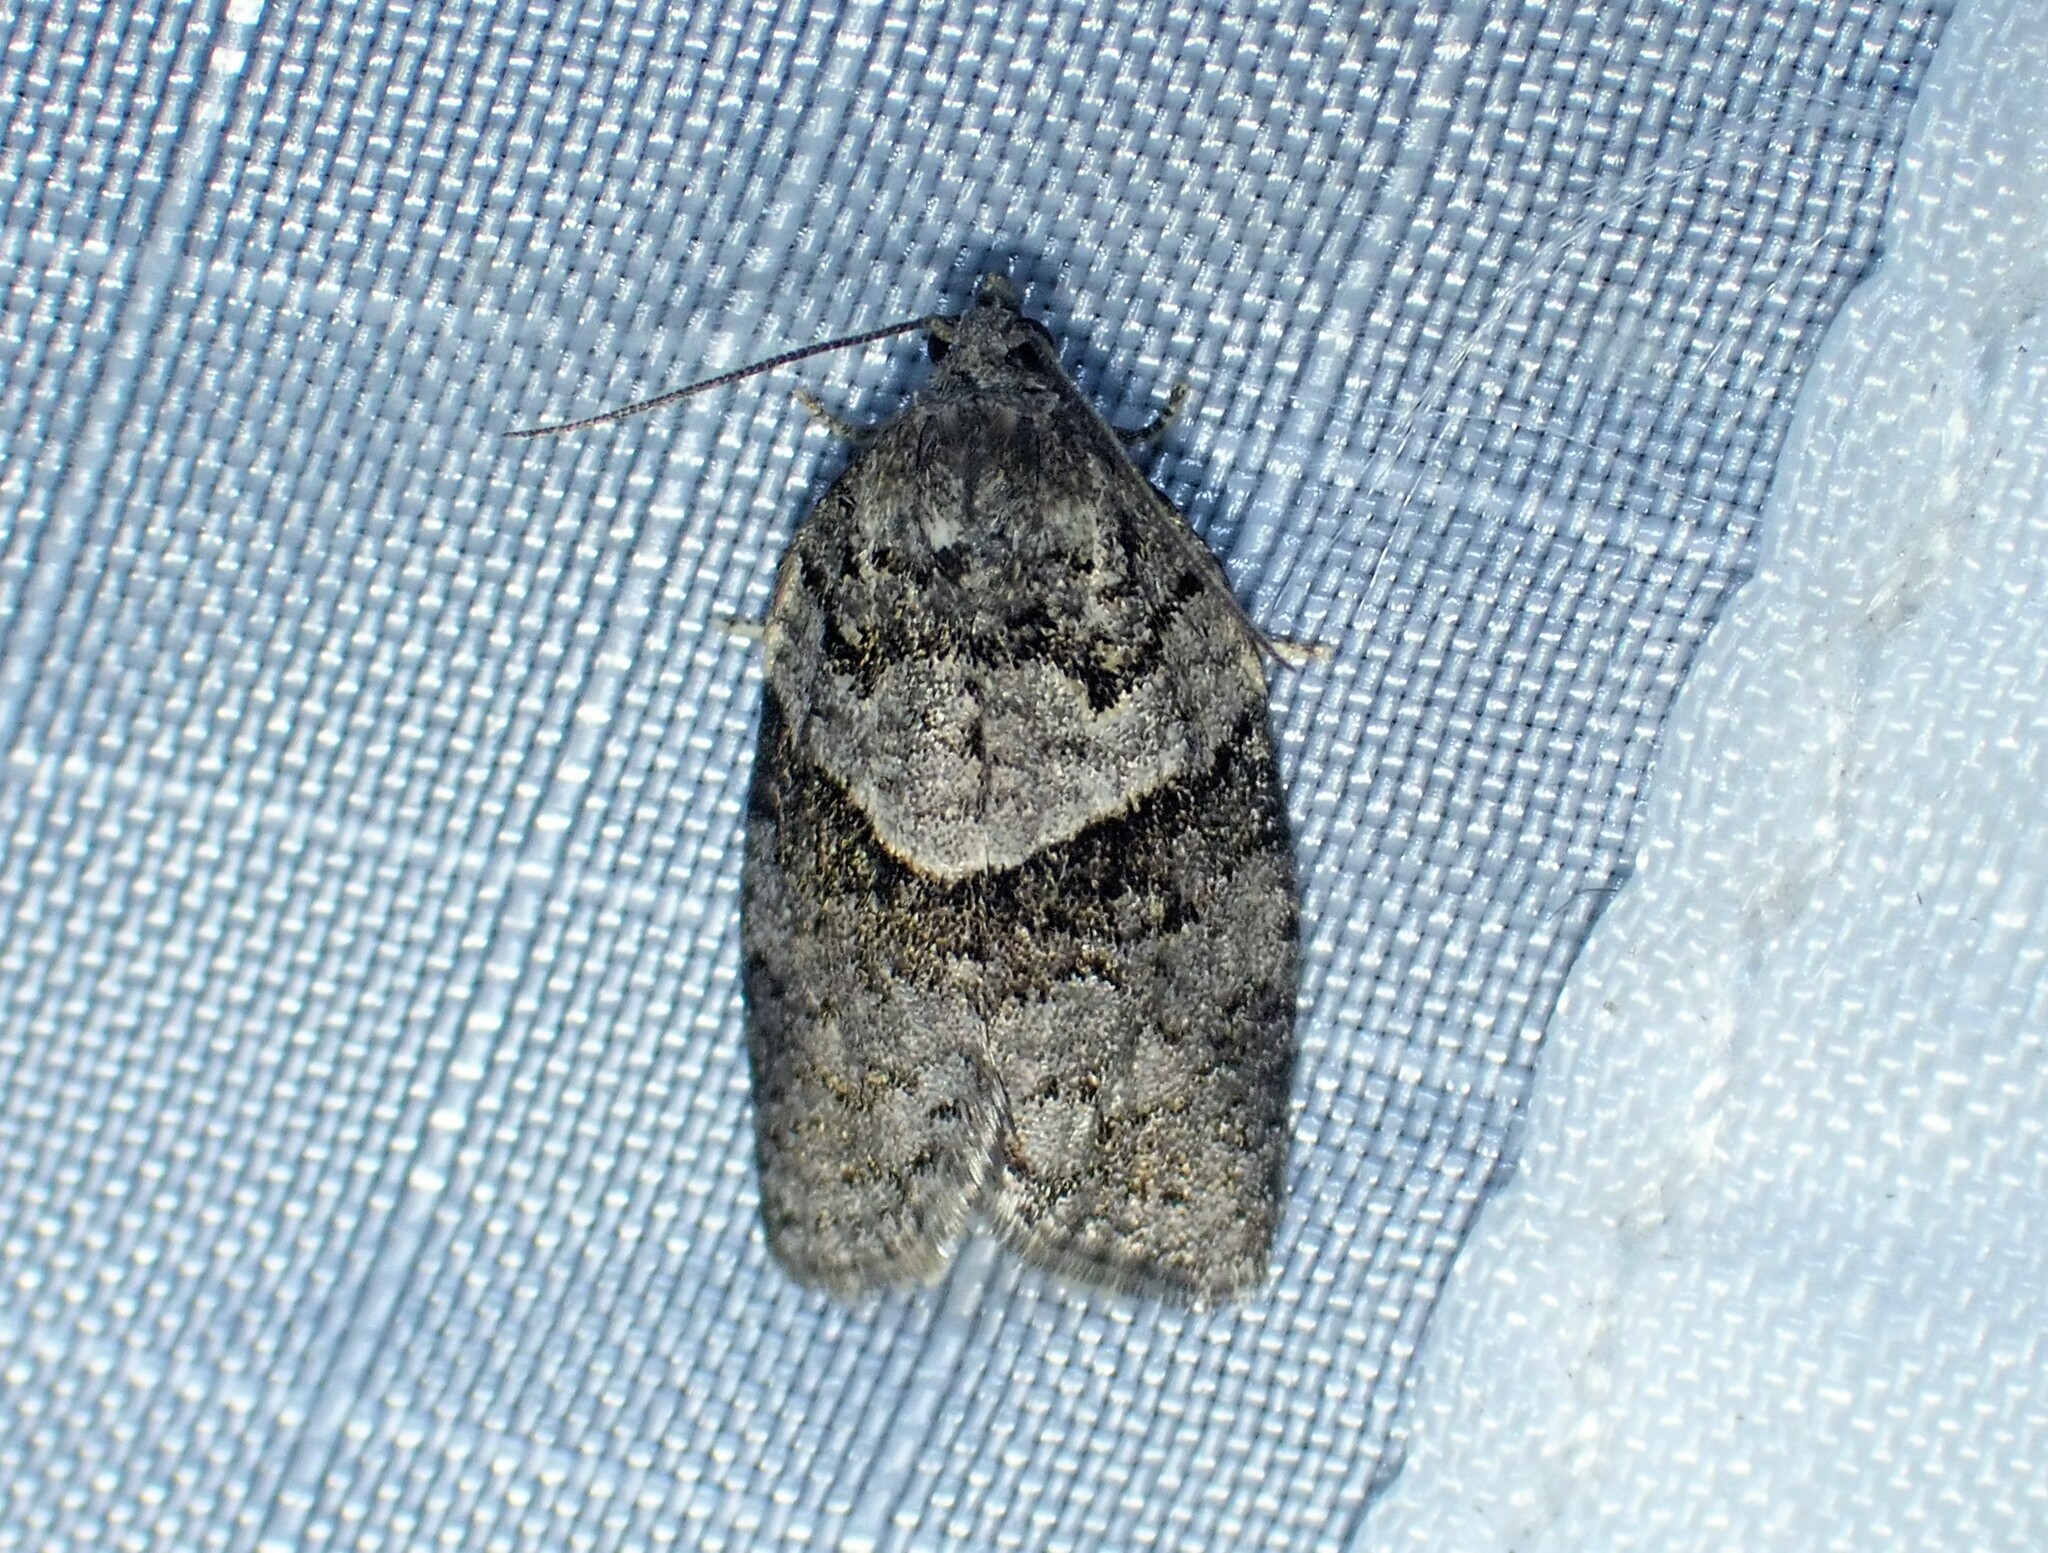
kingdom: Animalia
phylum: Arthropoda
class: Insecta
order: Lepidoptera
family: Tortricidae
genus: Syndemis
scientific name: Syndemis afflictana
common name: Gray leafroller moth
